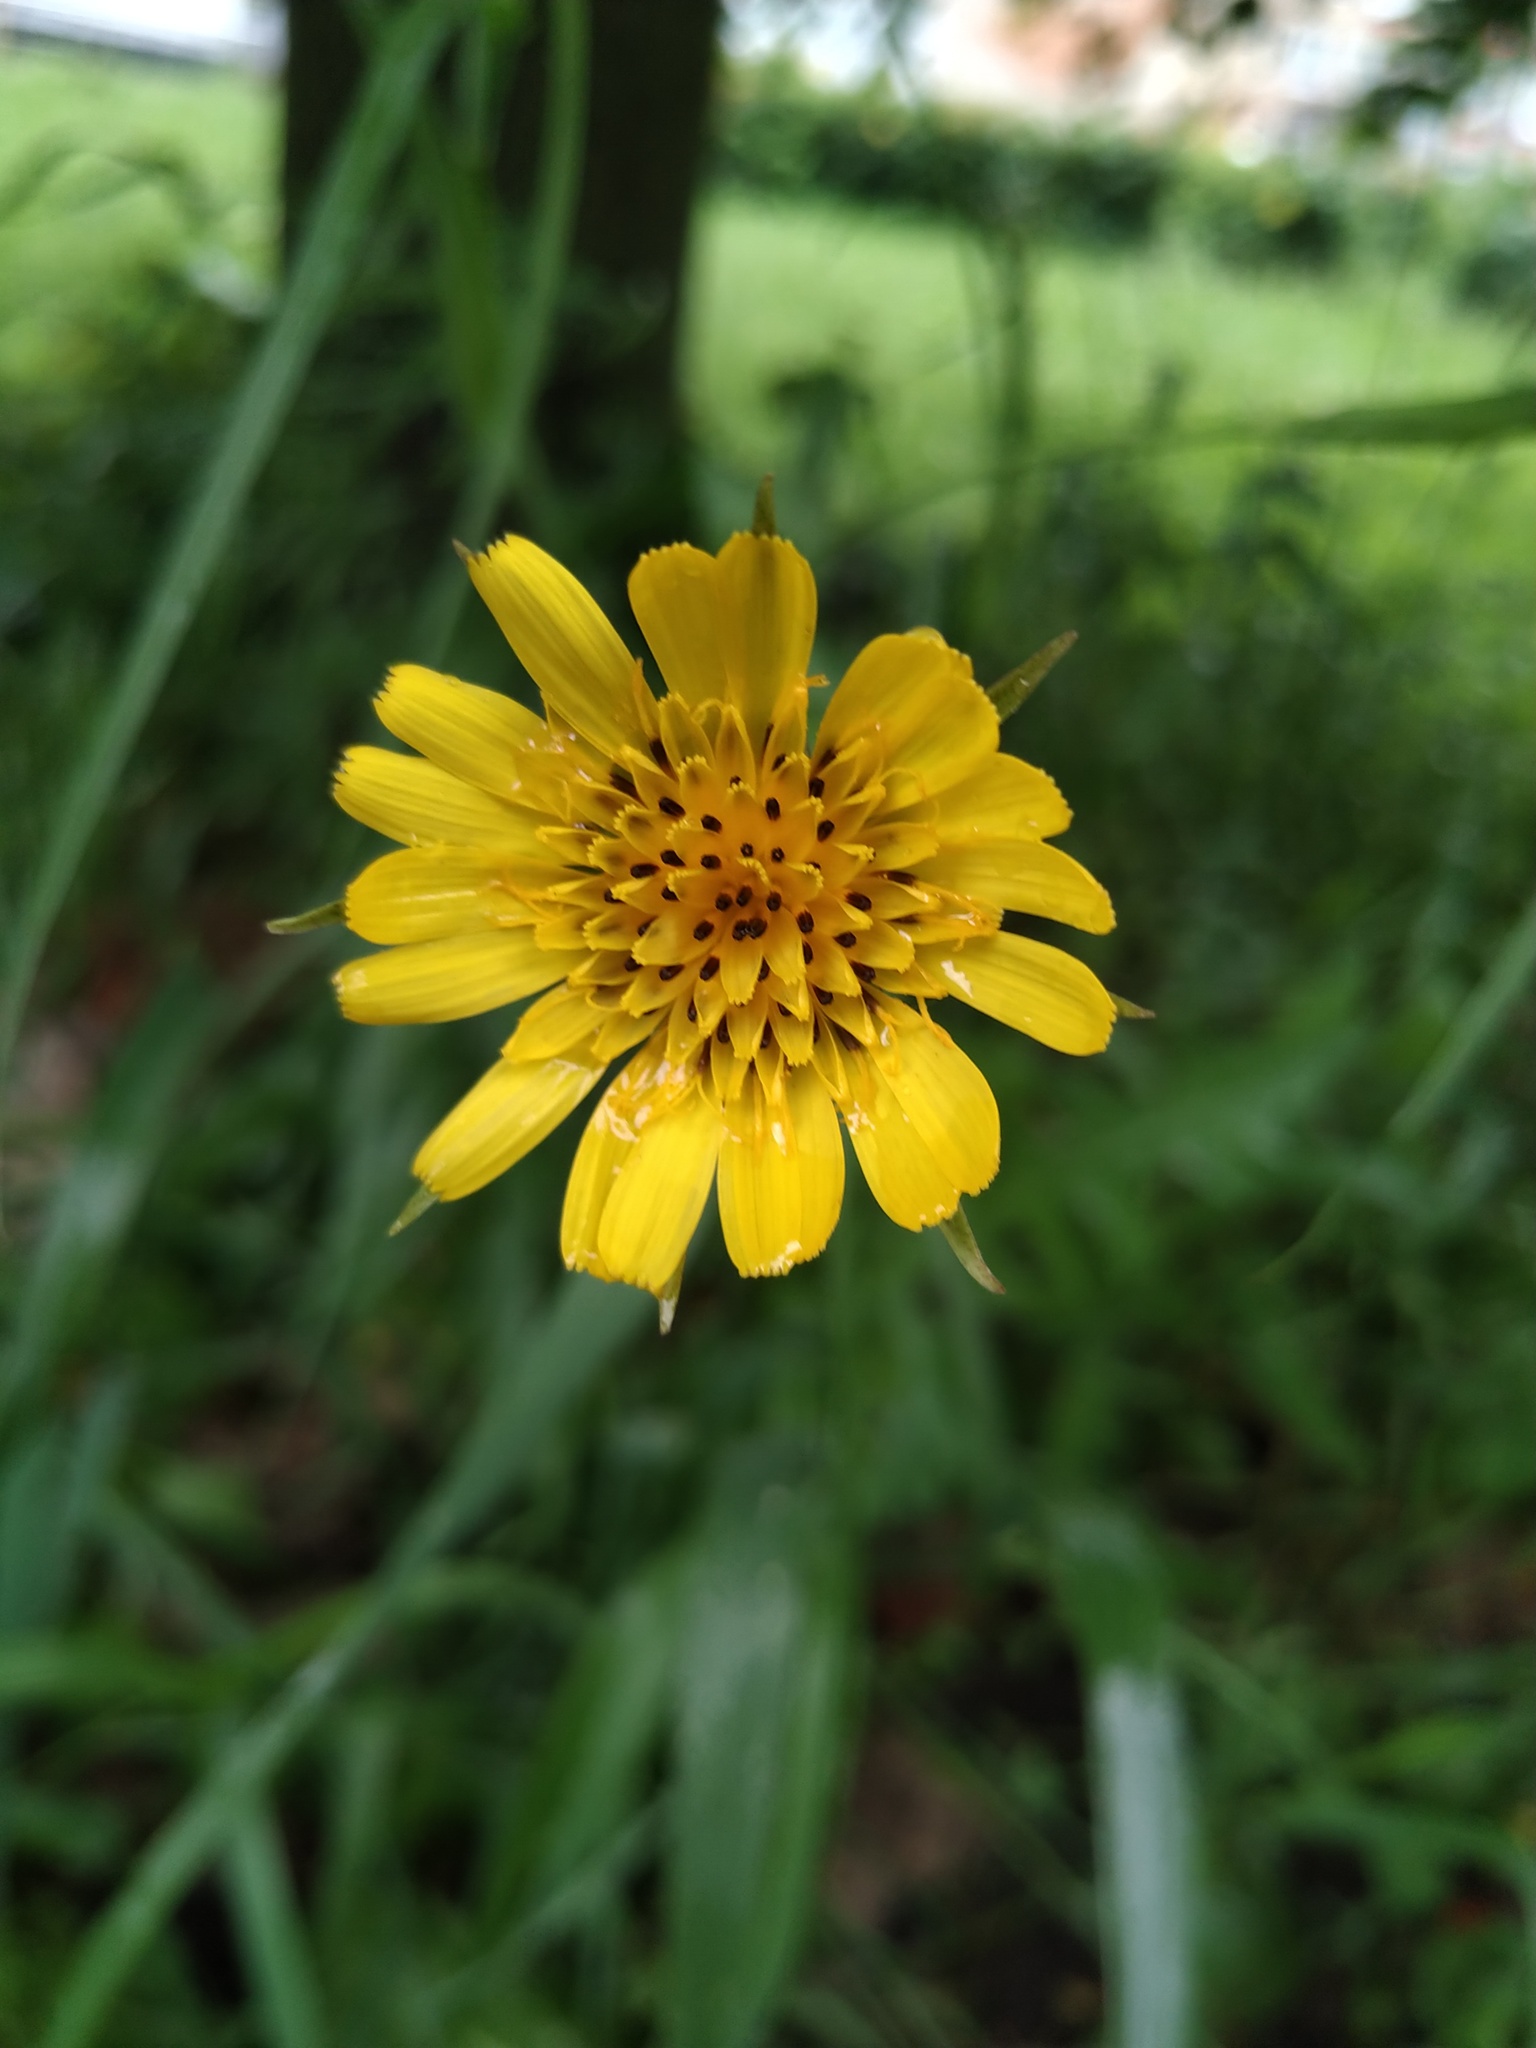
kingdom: Plantae
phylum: Tracheophyta
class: Magnoliopsida
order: Asterales
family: Asteraceae
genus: Tragopogon
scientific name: Tragopogon pratensis
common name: Goat's-beard
